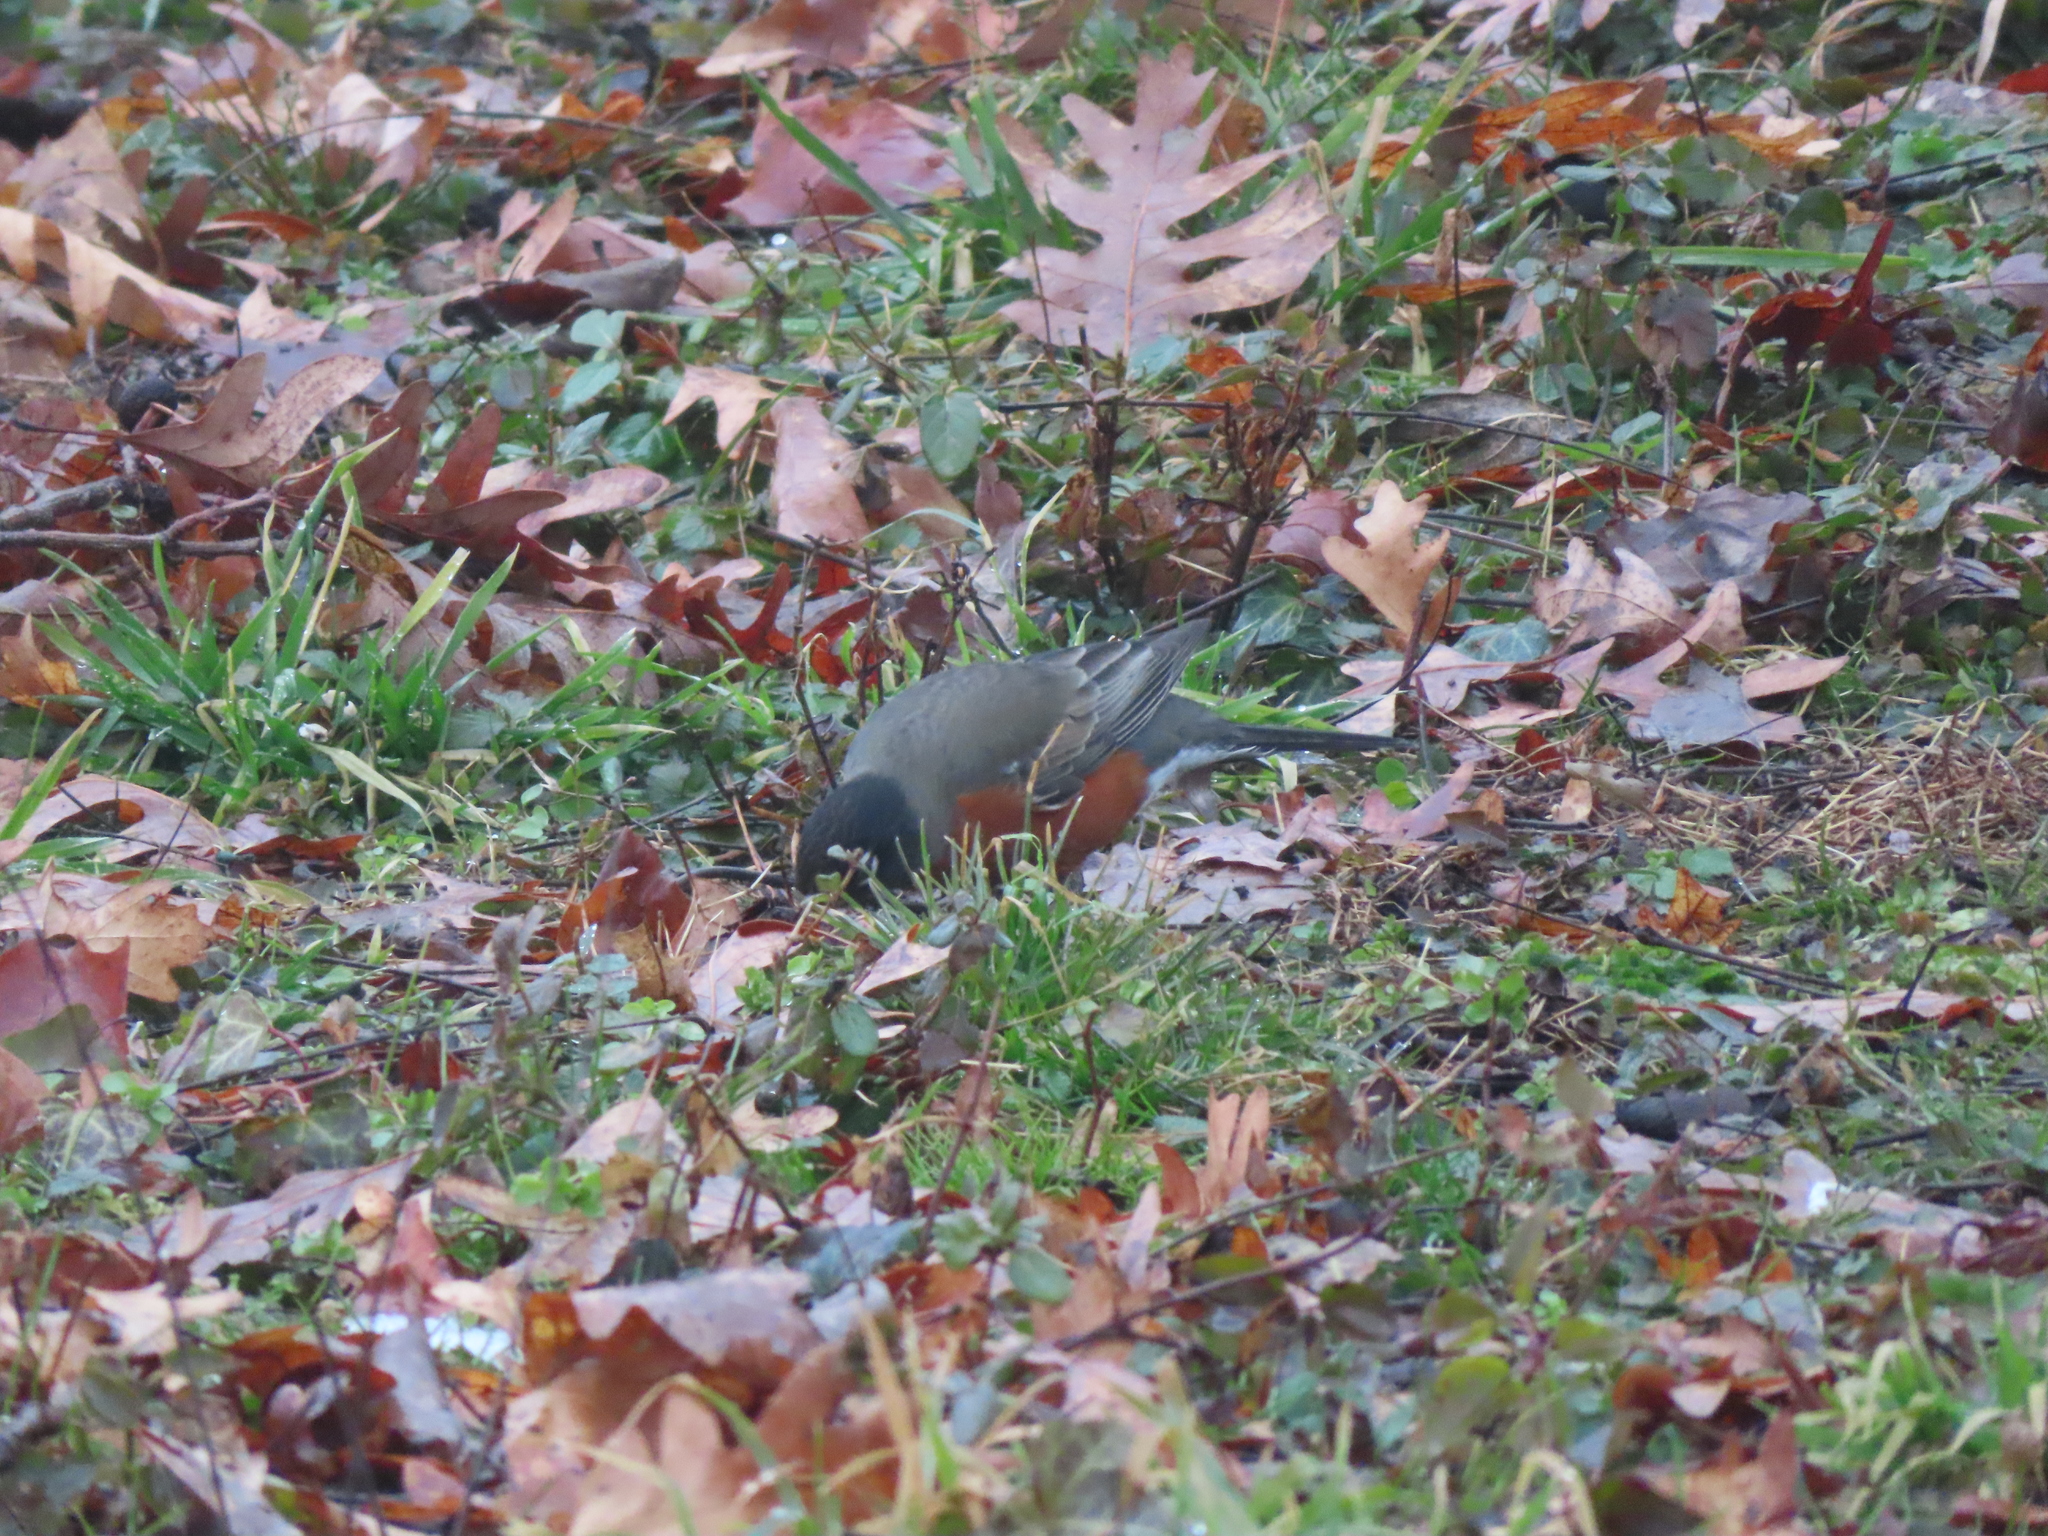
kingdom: Animalia
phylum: Chordata
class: Aves
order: Passeriformes
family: Turdidae
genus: Turdus
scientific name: Turdus migratorius
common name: American robin
